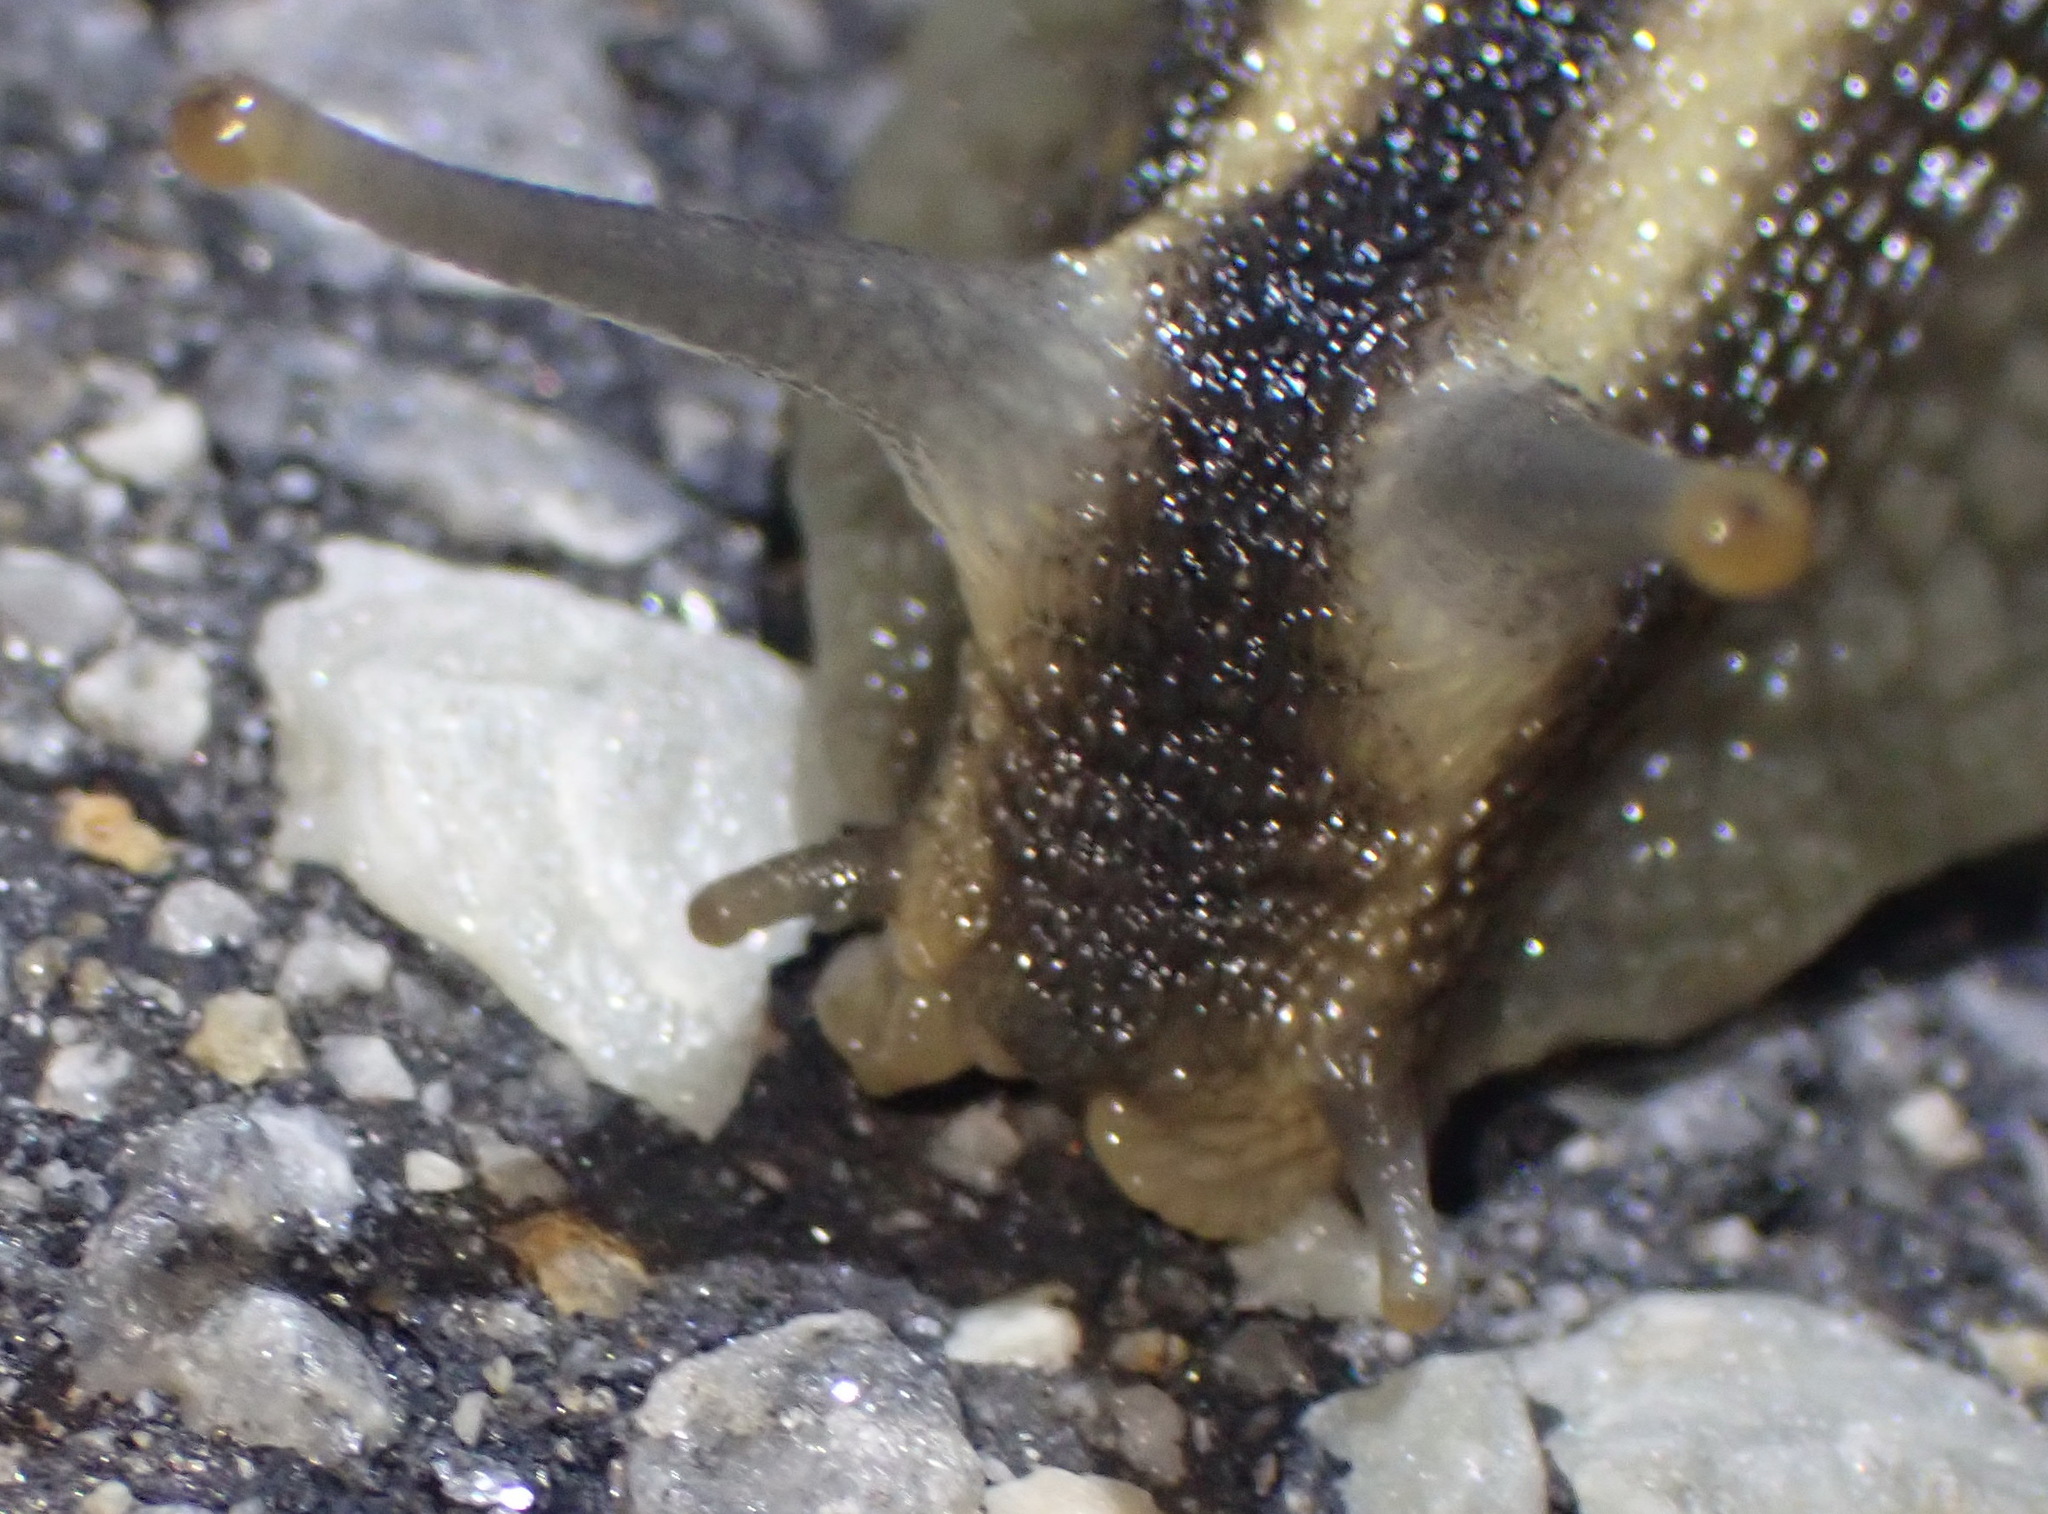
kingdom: Animalia
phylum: Mollusca
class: Gastropoda
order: Stylommatophora
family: Achatinidae
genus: Cochlitoma
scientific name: Cochlitoma zebra
